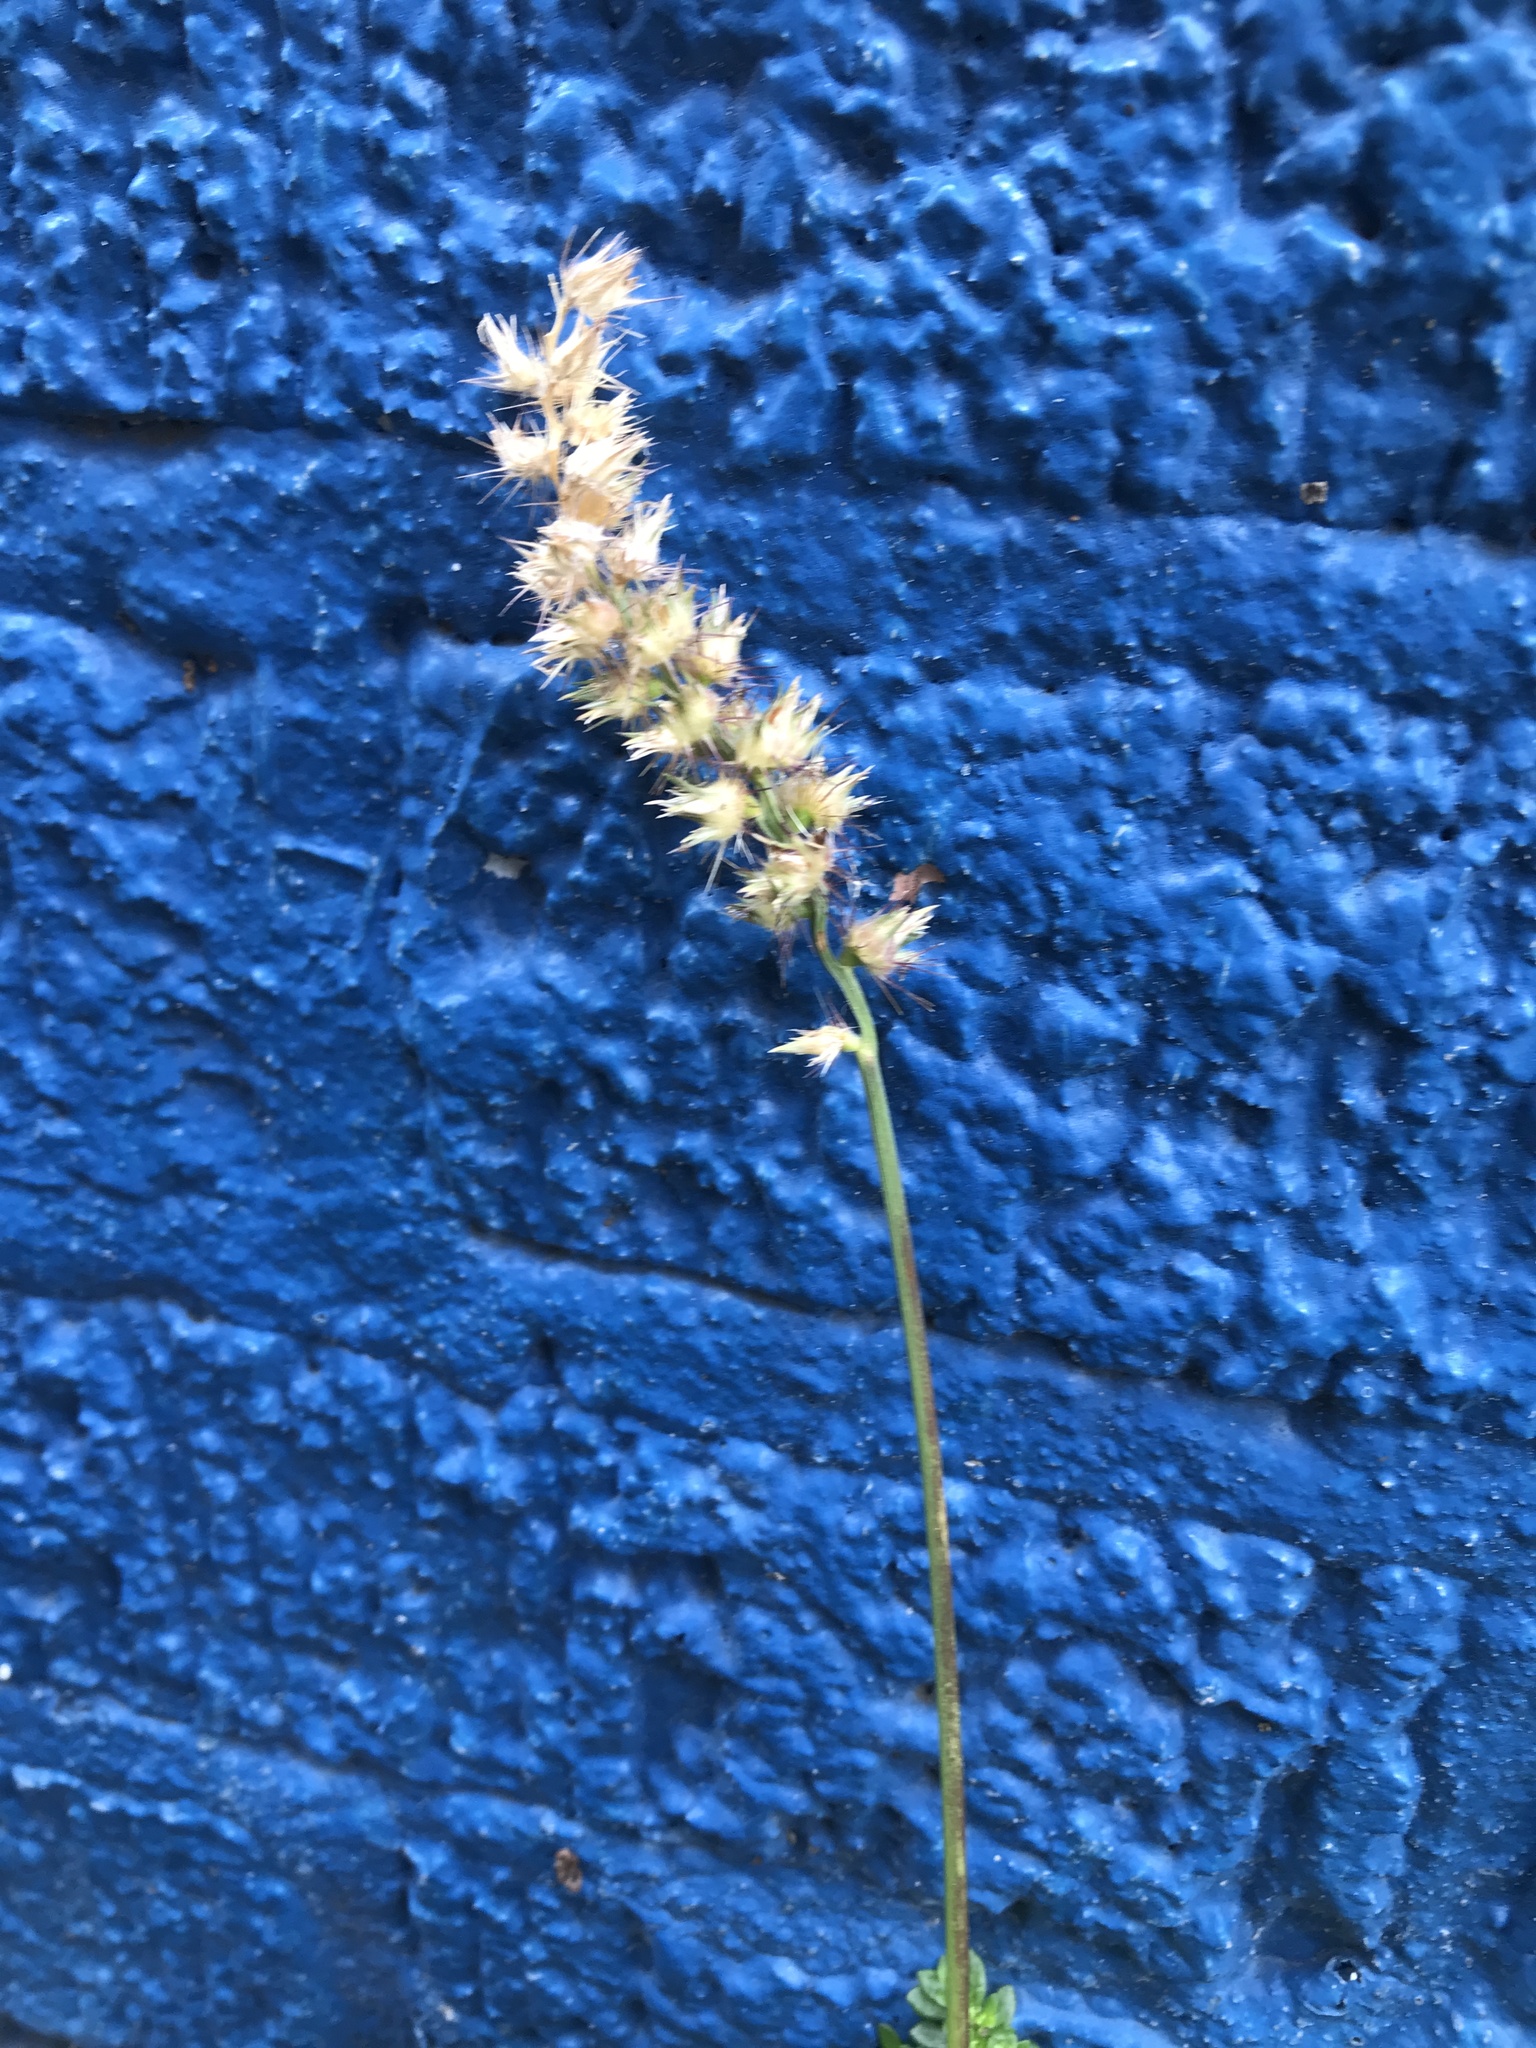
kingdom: Plantae
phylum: Tracheophyta
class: Liliopsida
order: Poales
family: Poaceae
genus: Cenchrus
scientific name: Cenchrus echinatus
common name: Southern sandbur
